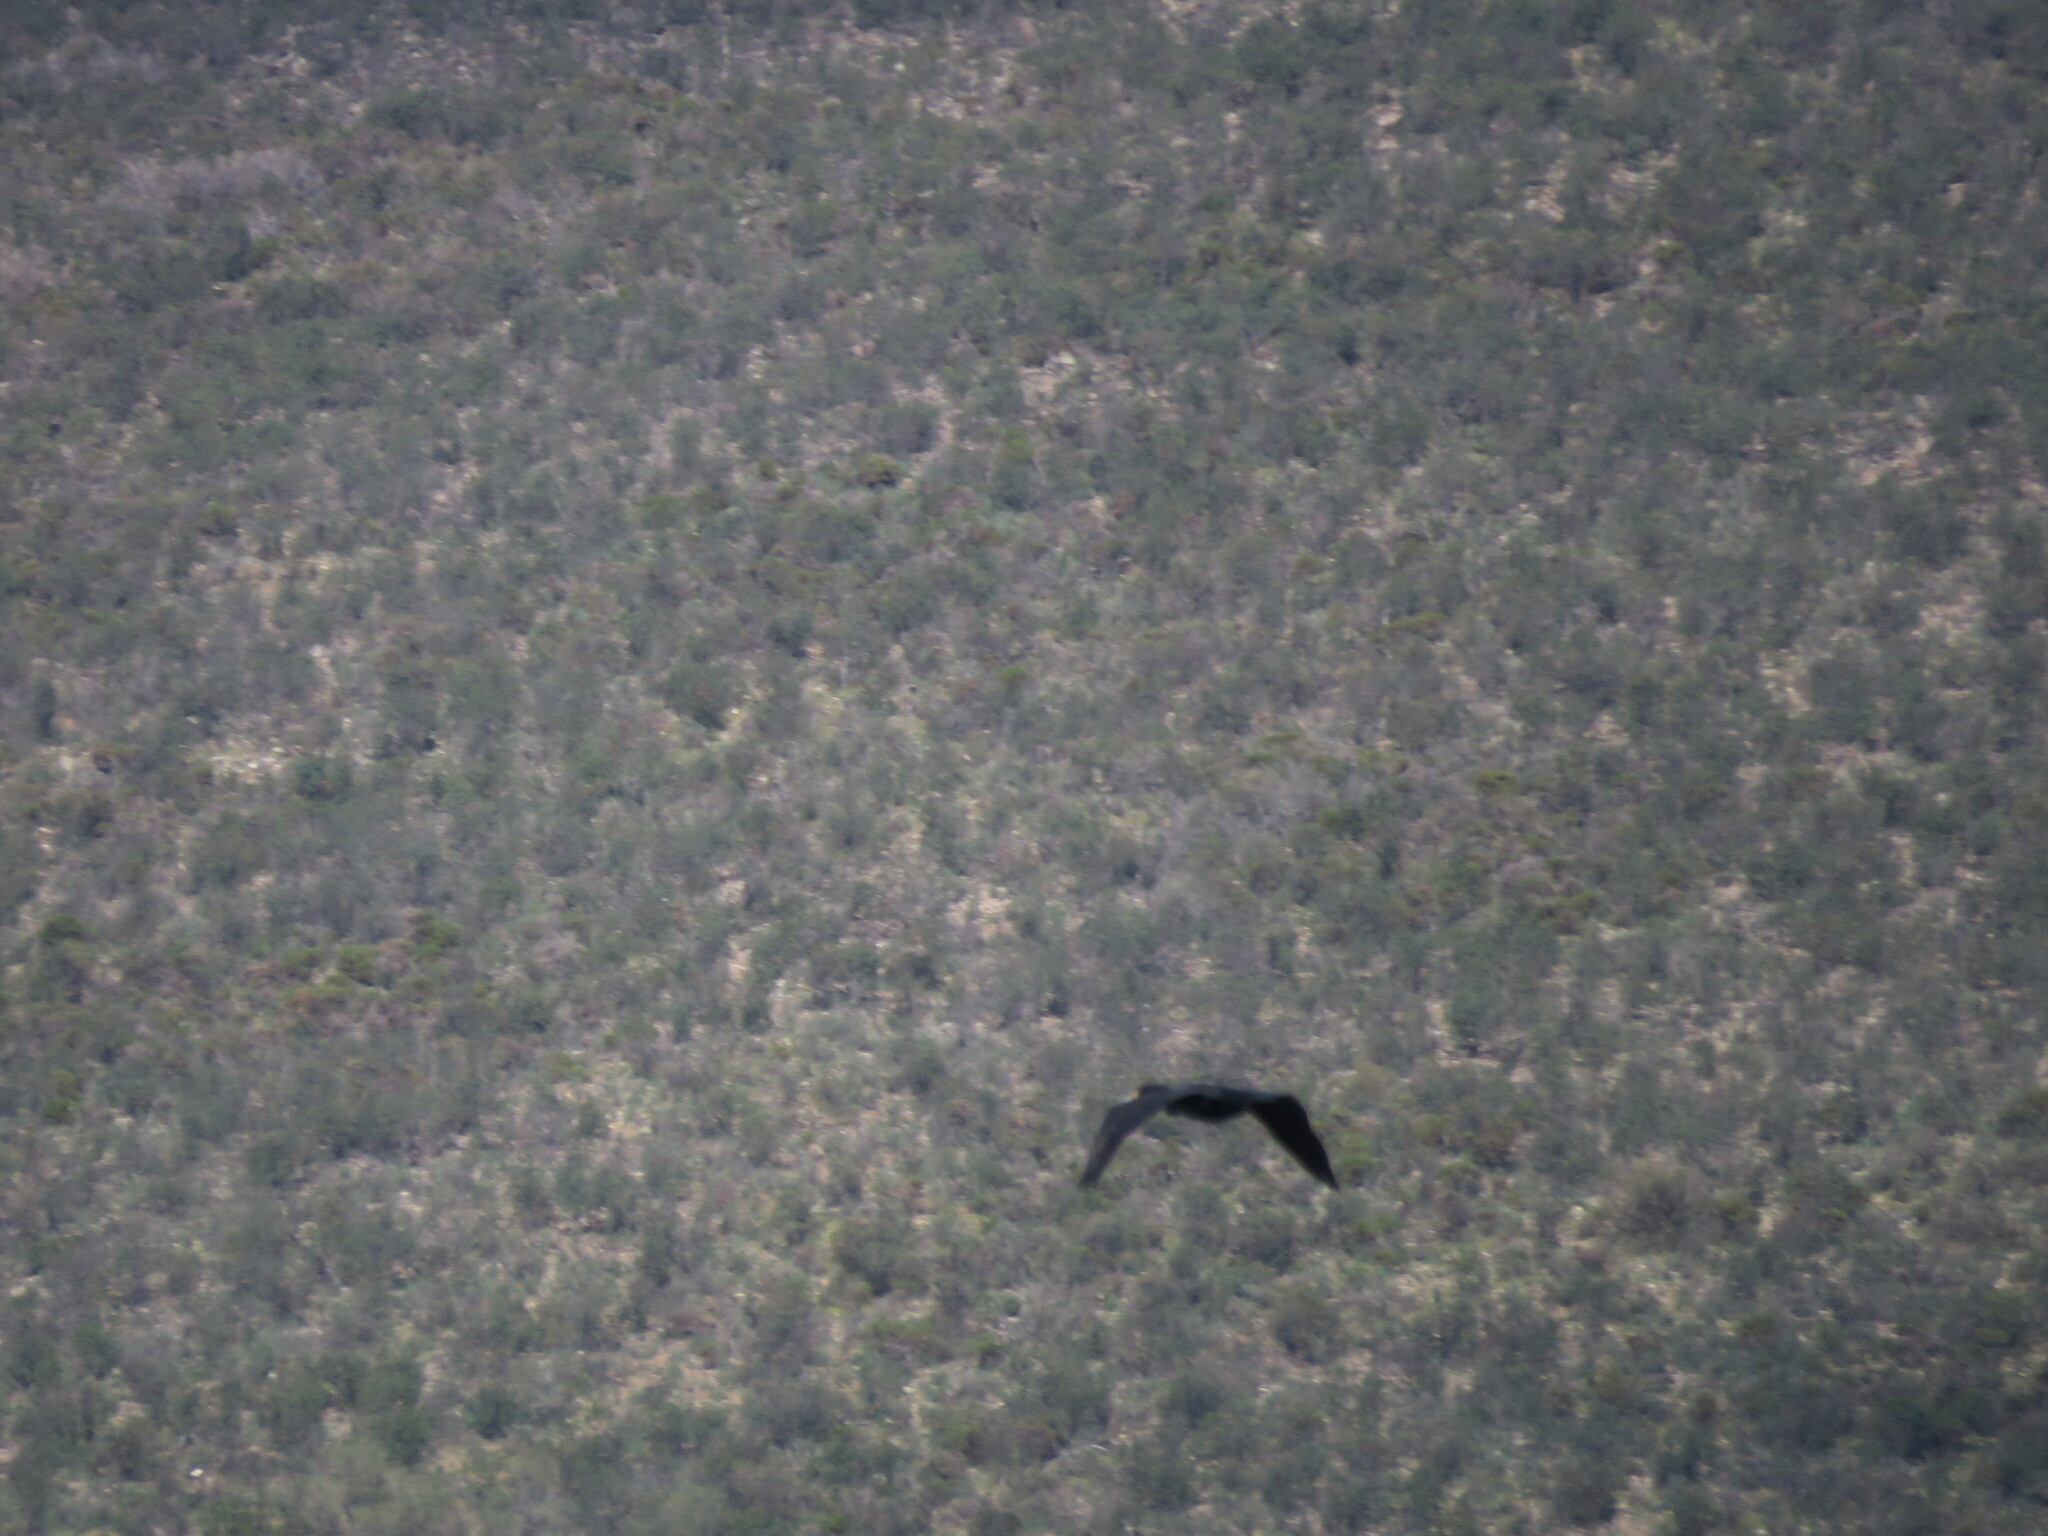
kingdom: Animalia
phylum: Chordata
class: Aves
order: Suliformes
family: Phalacrocoracidae
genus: Phalacrocorax
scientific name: Phalacrocorax carbo
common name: Great cormorant
